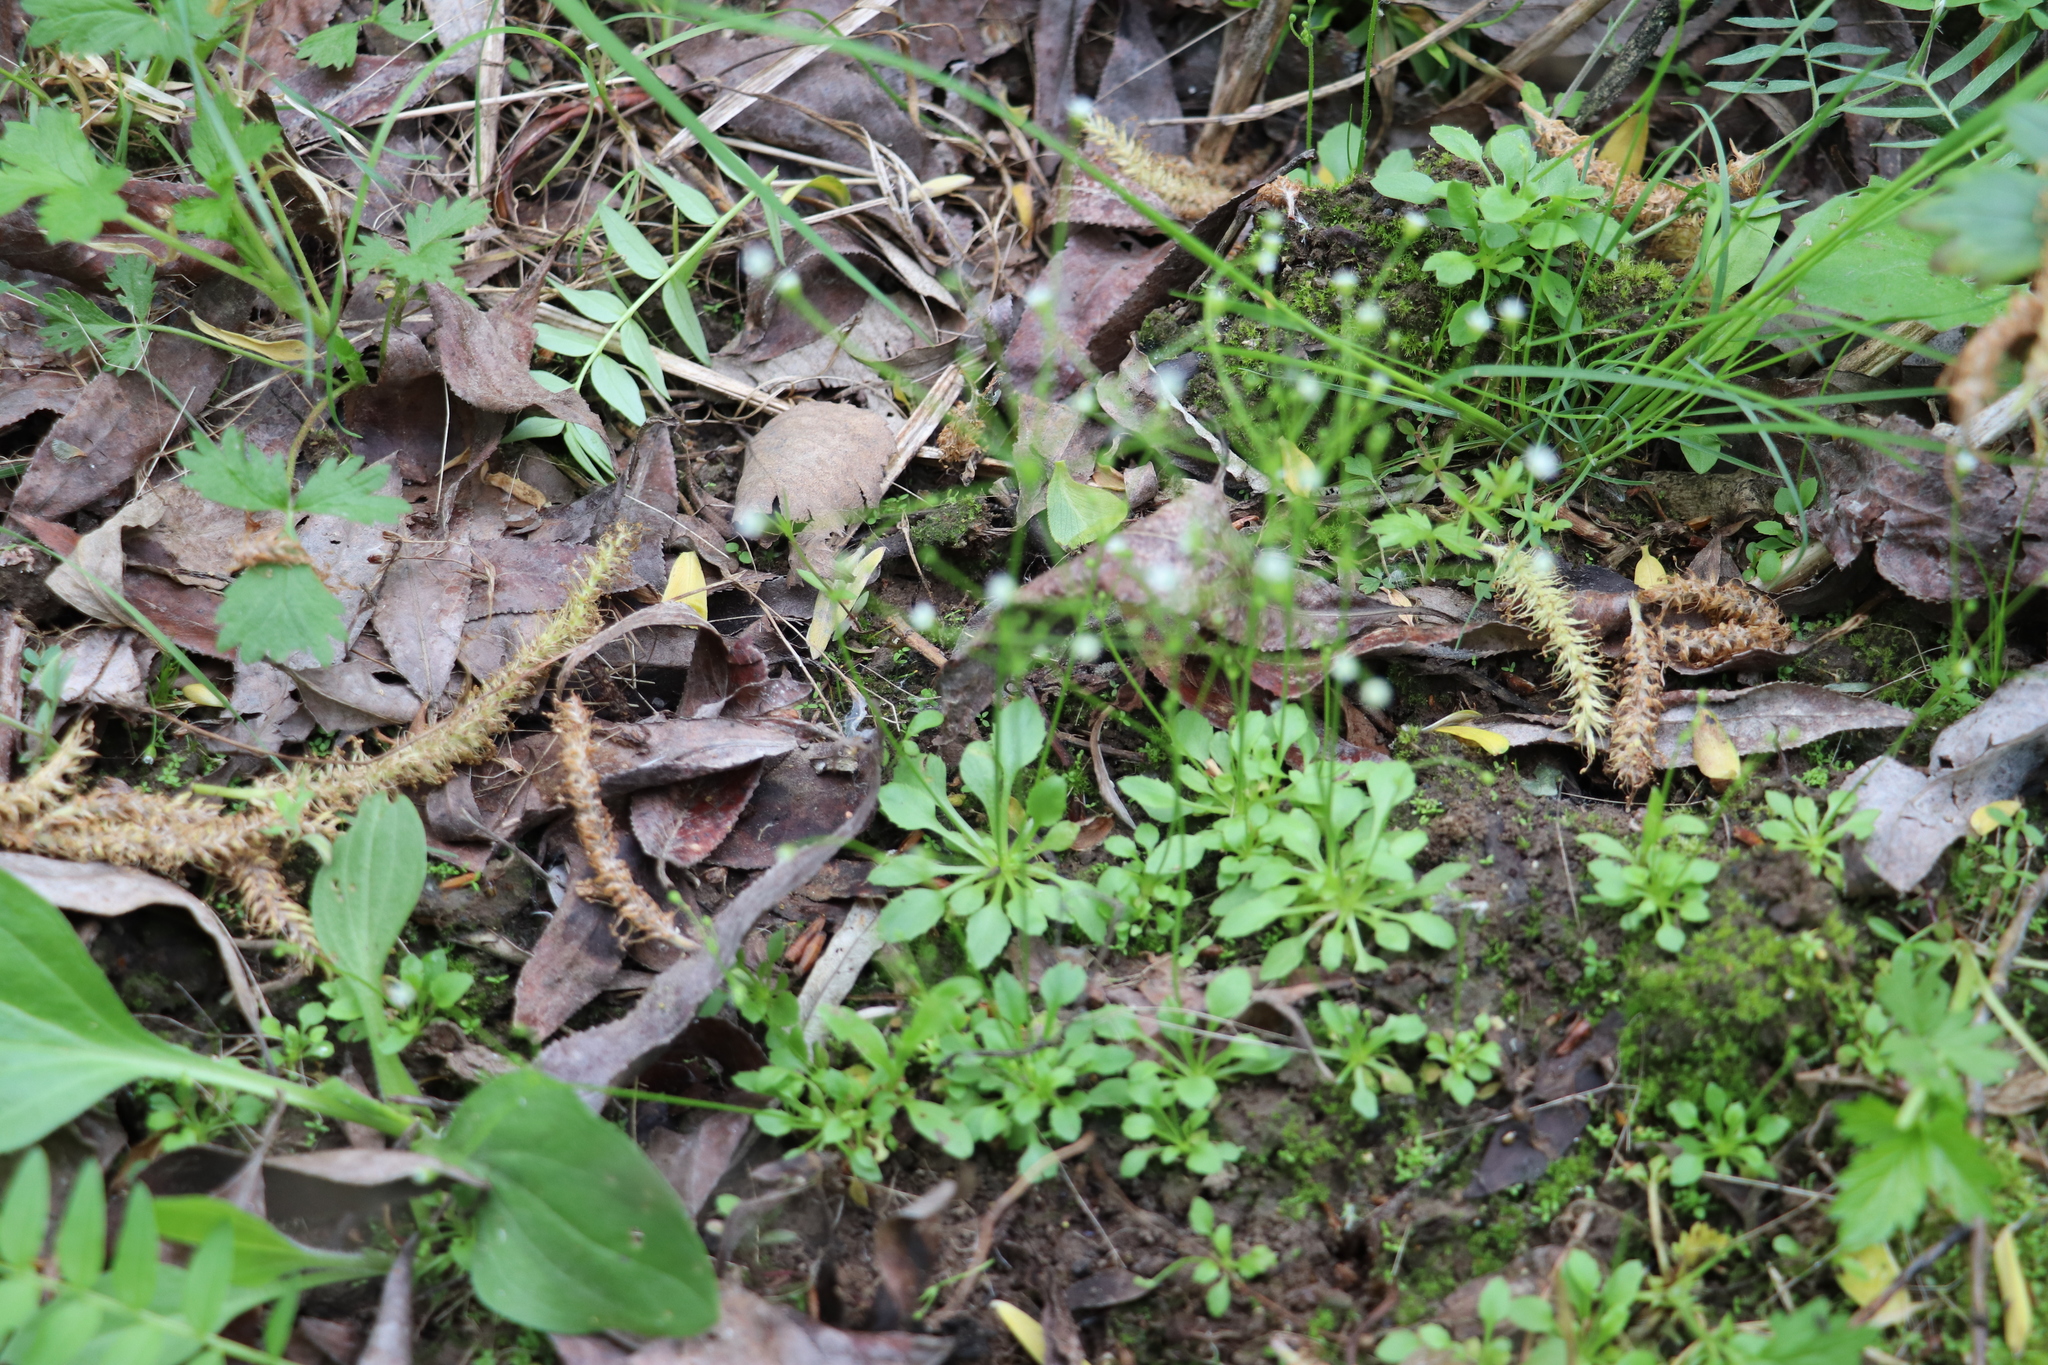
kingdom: Plantae
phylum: Tracheophyta
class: Magnoliopsida
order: Ericales
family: Primulaceae
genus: Androsace
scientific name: Androsace filiformis
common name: Filiform rock jasmine
